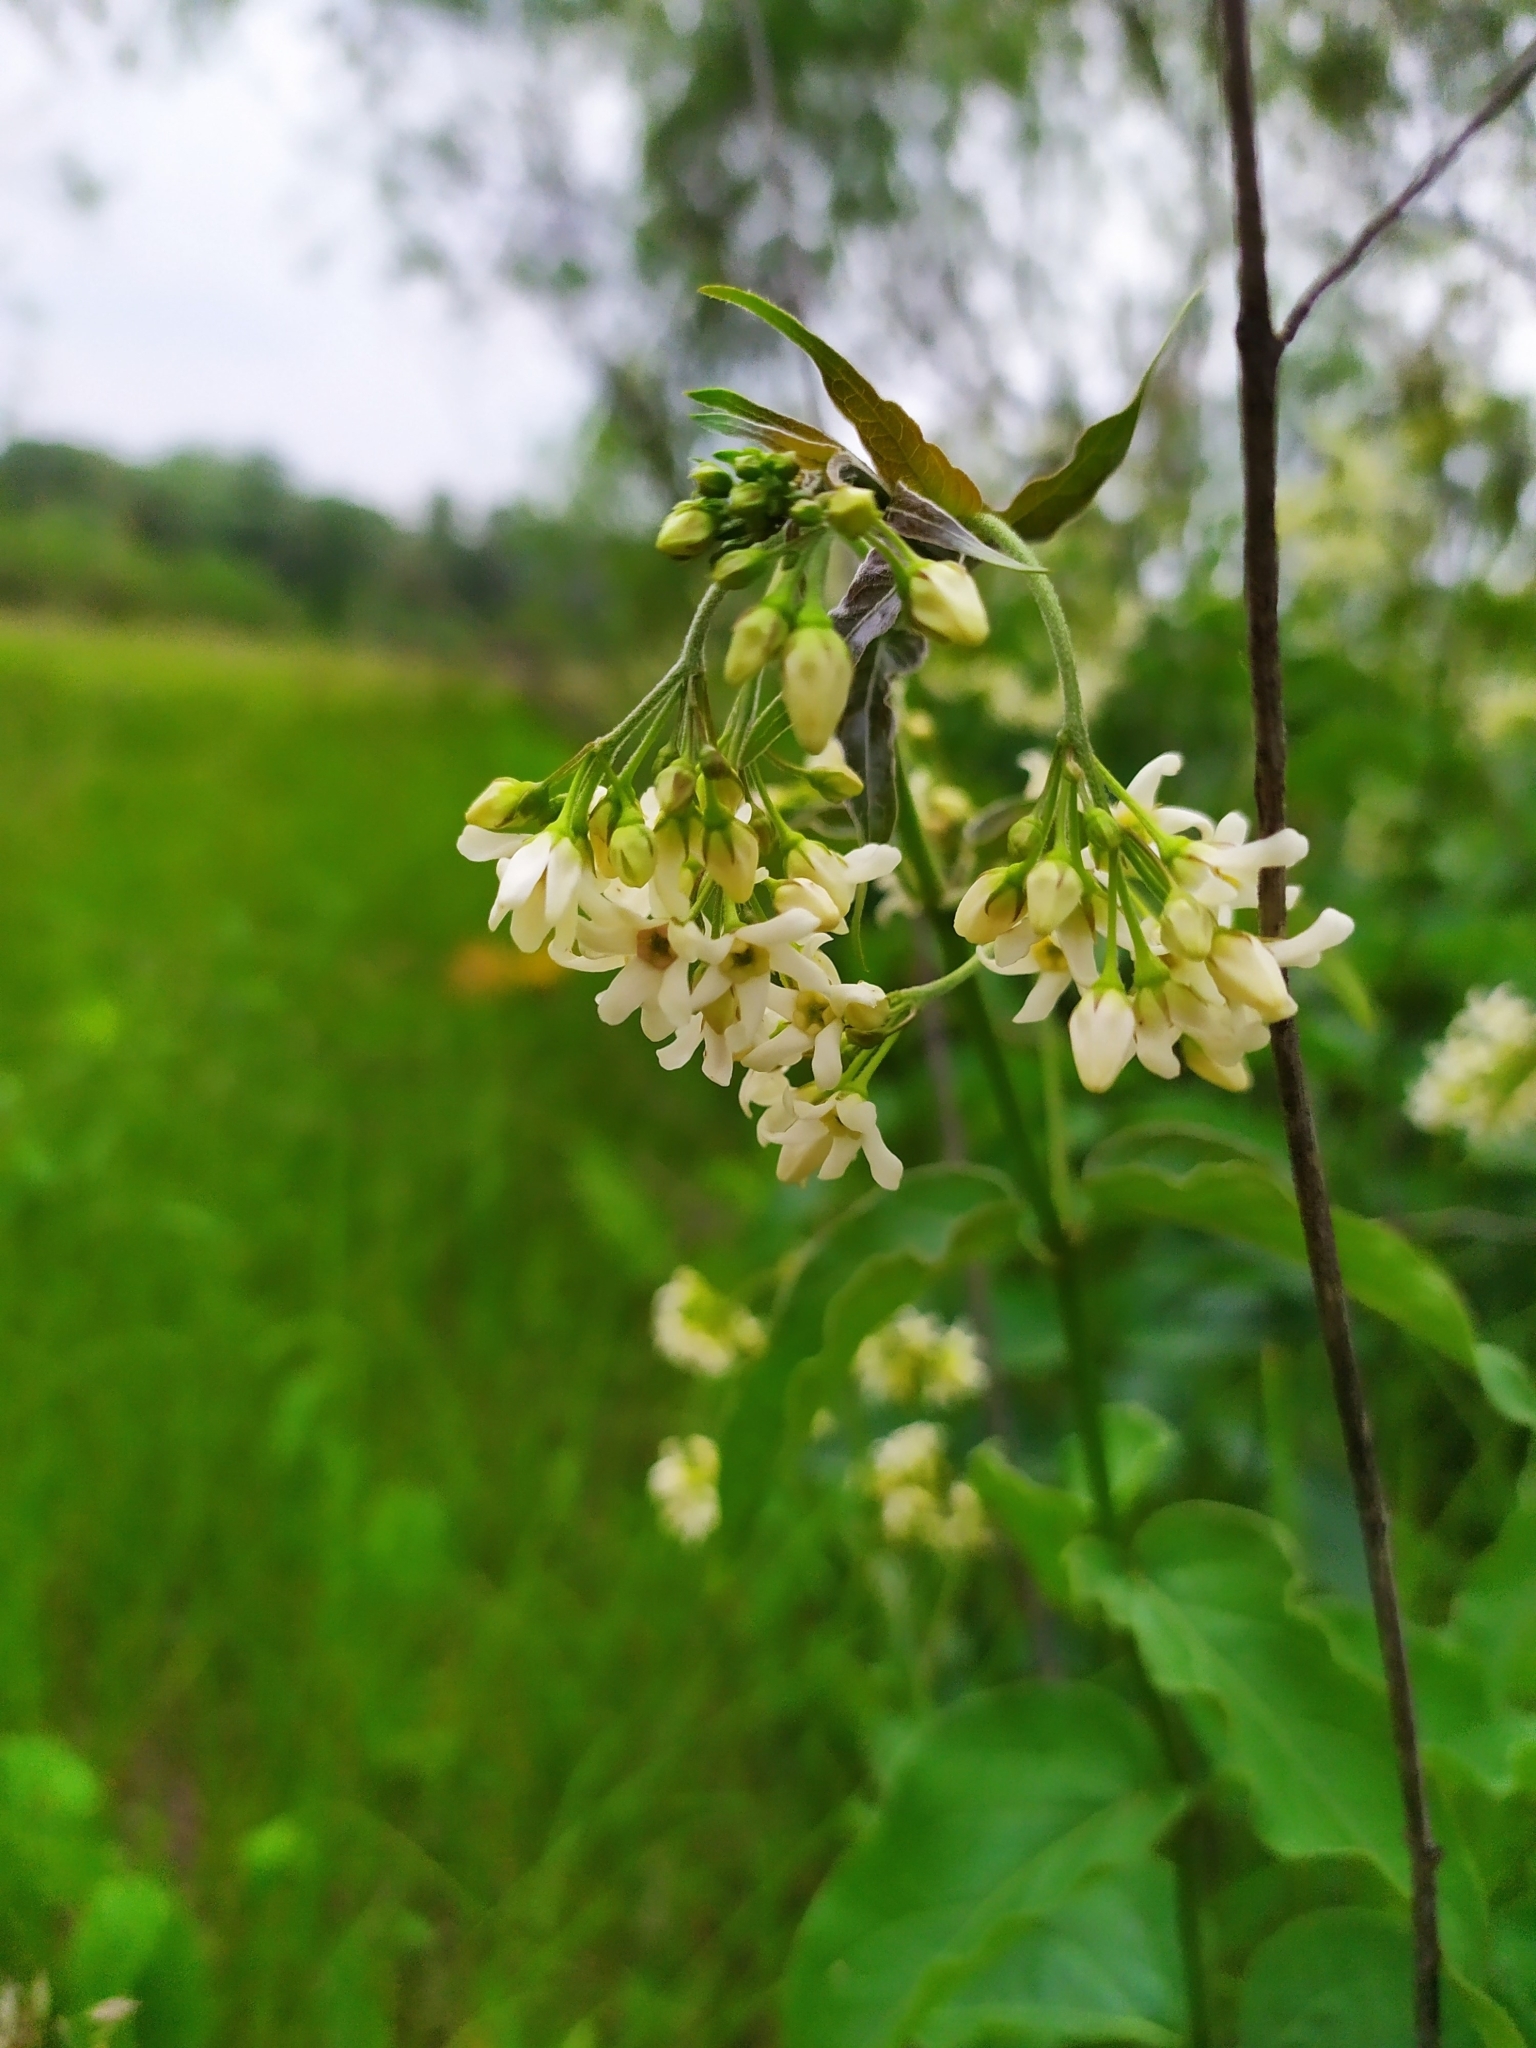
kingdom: Plantae
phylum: Tracheophyta
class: Magnoliopsida
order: Gentianales
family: Apocynaceae
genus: Vincetoxicum
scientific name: Vincetoxicum hirundinaria
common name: White swallowwort
